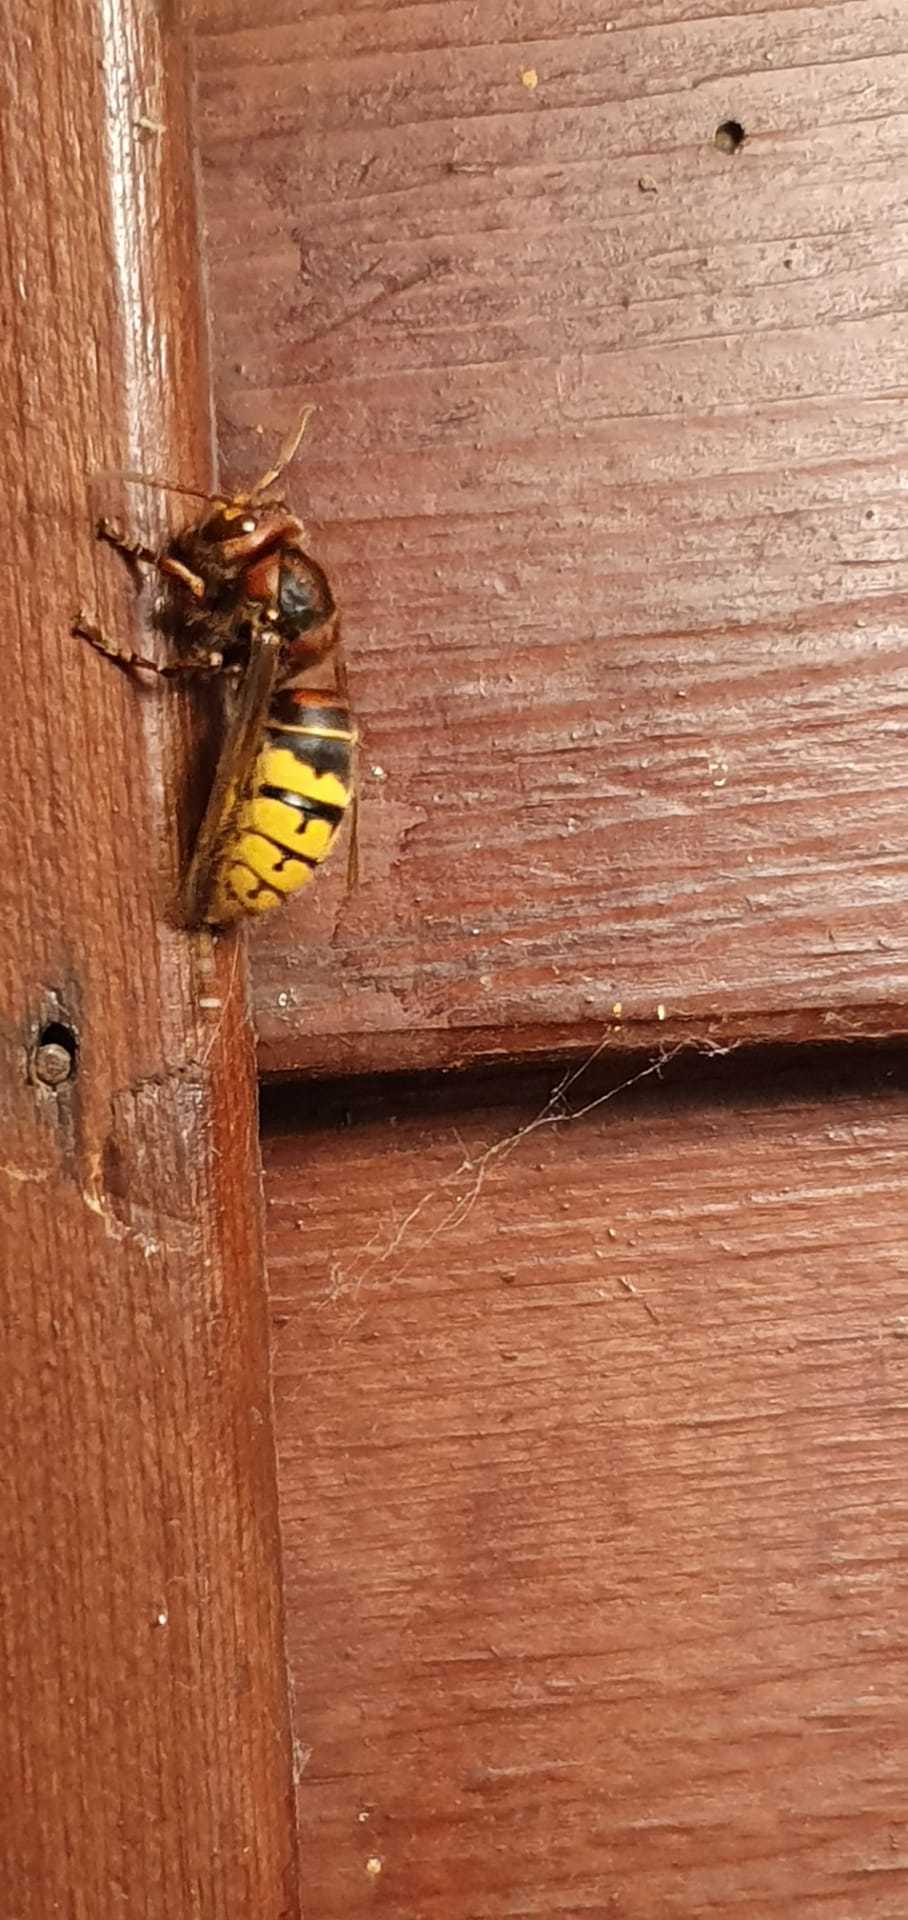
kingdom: Animalia
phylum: Arthropoda
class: Insecta
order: Hymenoptera
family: Vespidae
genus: Vespa
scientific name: Vespa crabro
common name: Hornet
